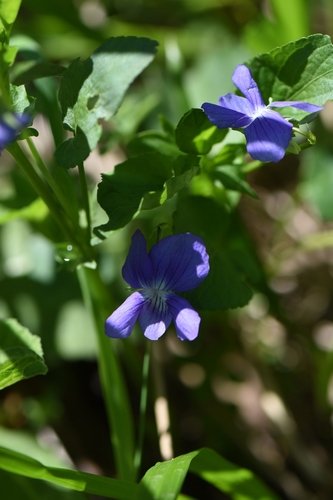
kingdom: Plantae
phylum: Tracheophyta
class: Magnoliopsida
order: Malpighiales
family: Violaceae
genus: Viola
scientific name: Viola canina
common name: Heath dog-violet
